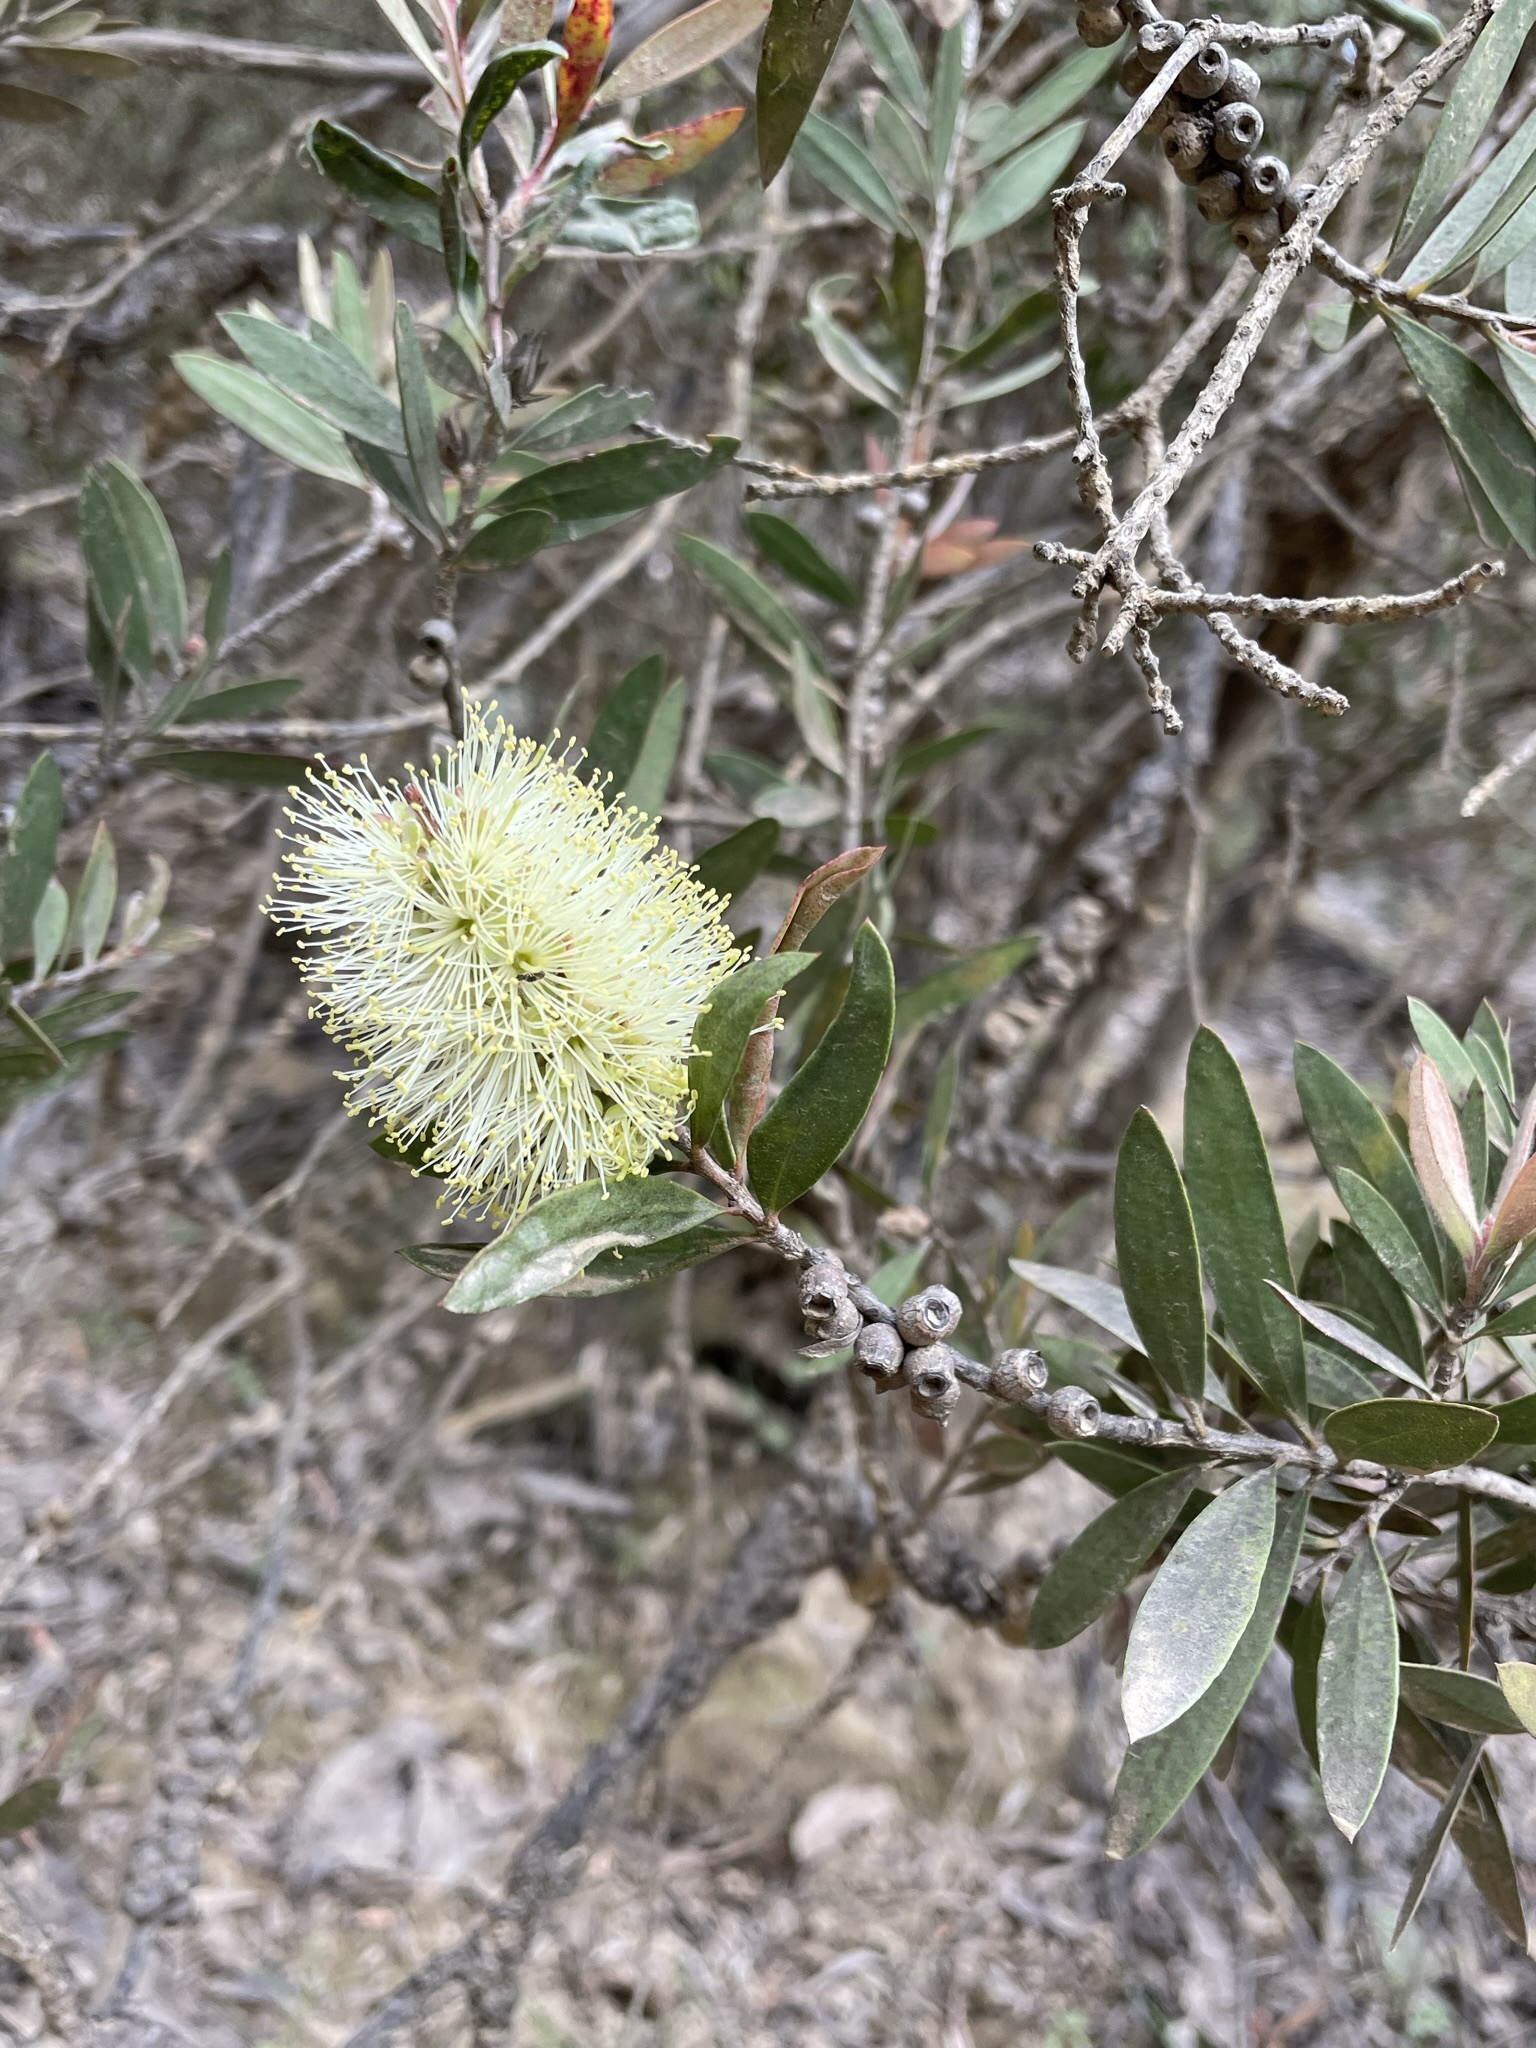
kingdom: Plantae
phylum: Tracheophyta
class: Magnoliopsida
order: Myrtales
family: Myrtaceae
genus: Melaleuca
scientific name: Melaleuca pallida
